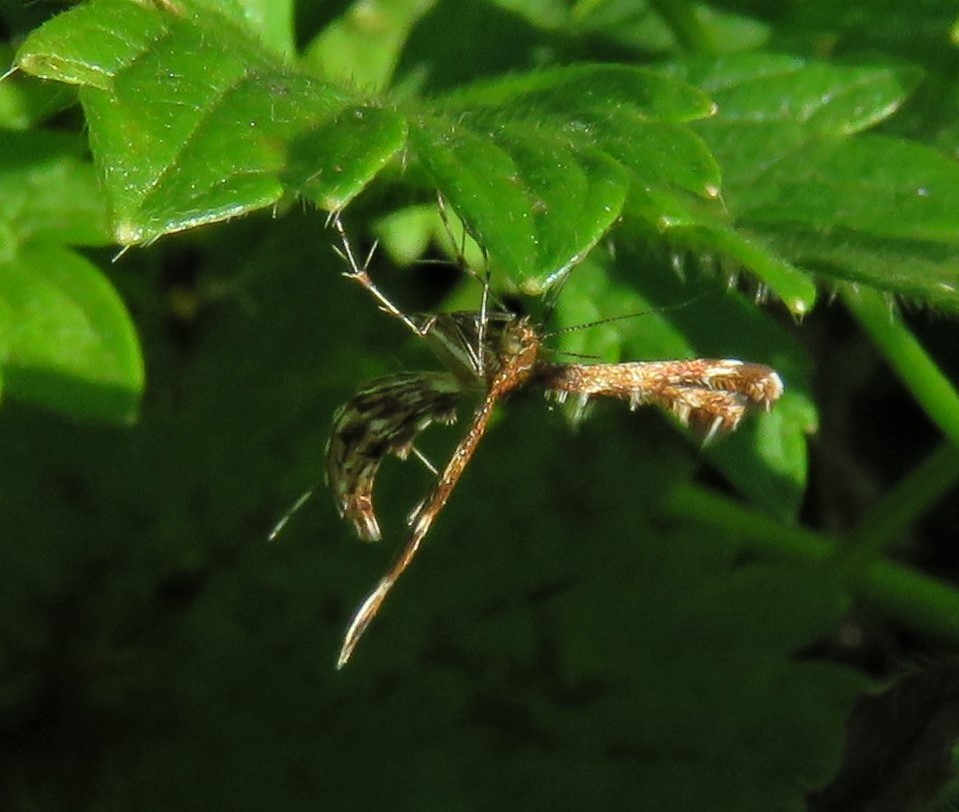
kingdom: Animalia
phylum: Arthropoda
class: Insecta
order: Lepidoptera
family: Pterophoridae
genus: Dejongia
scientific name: Dejongia lobidactylus
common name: Lobed plume moth
